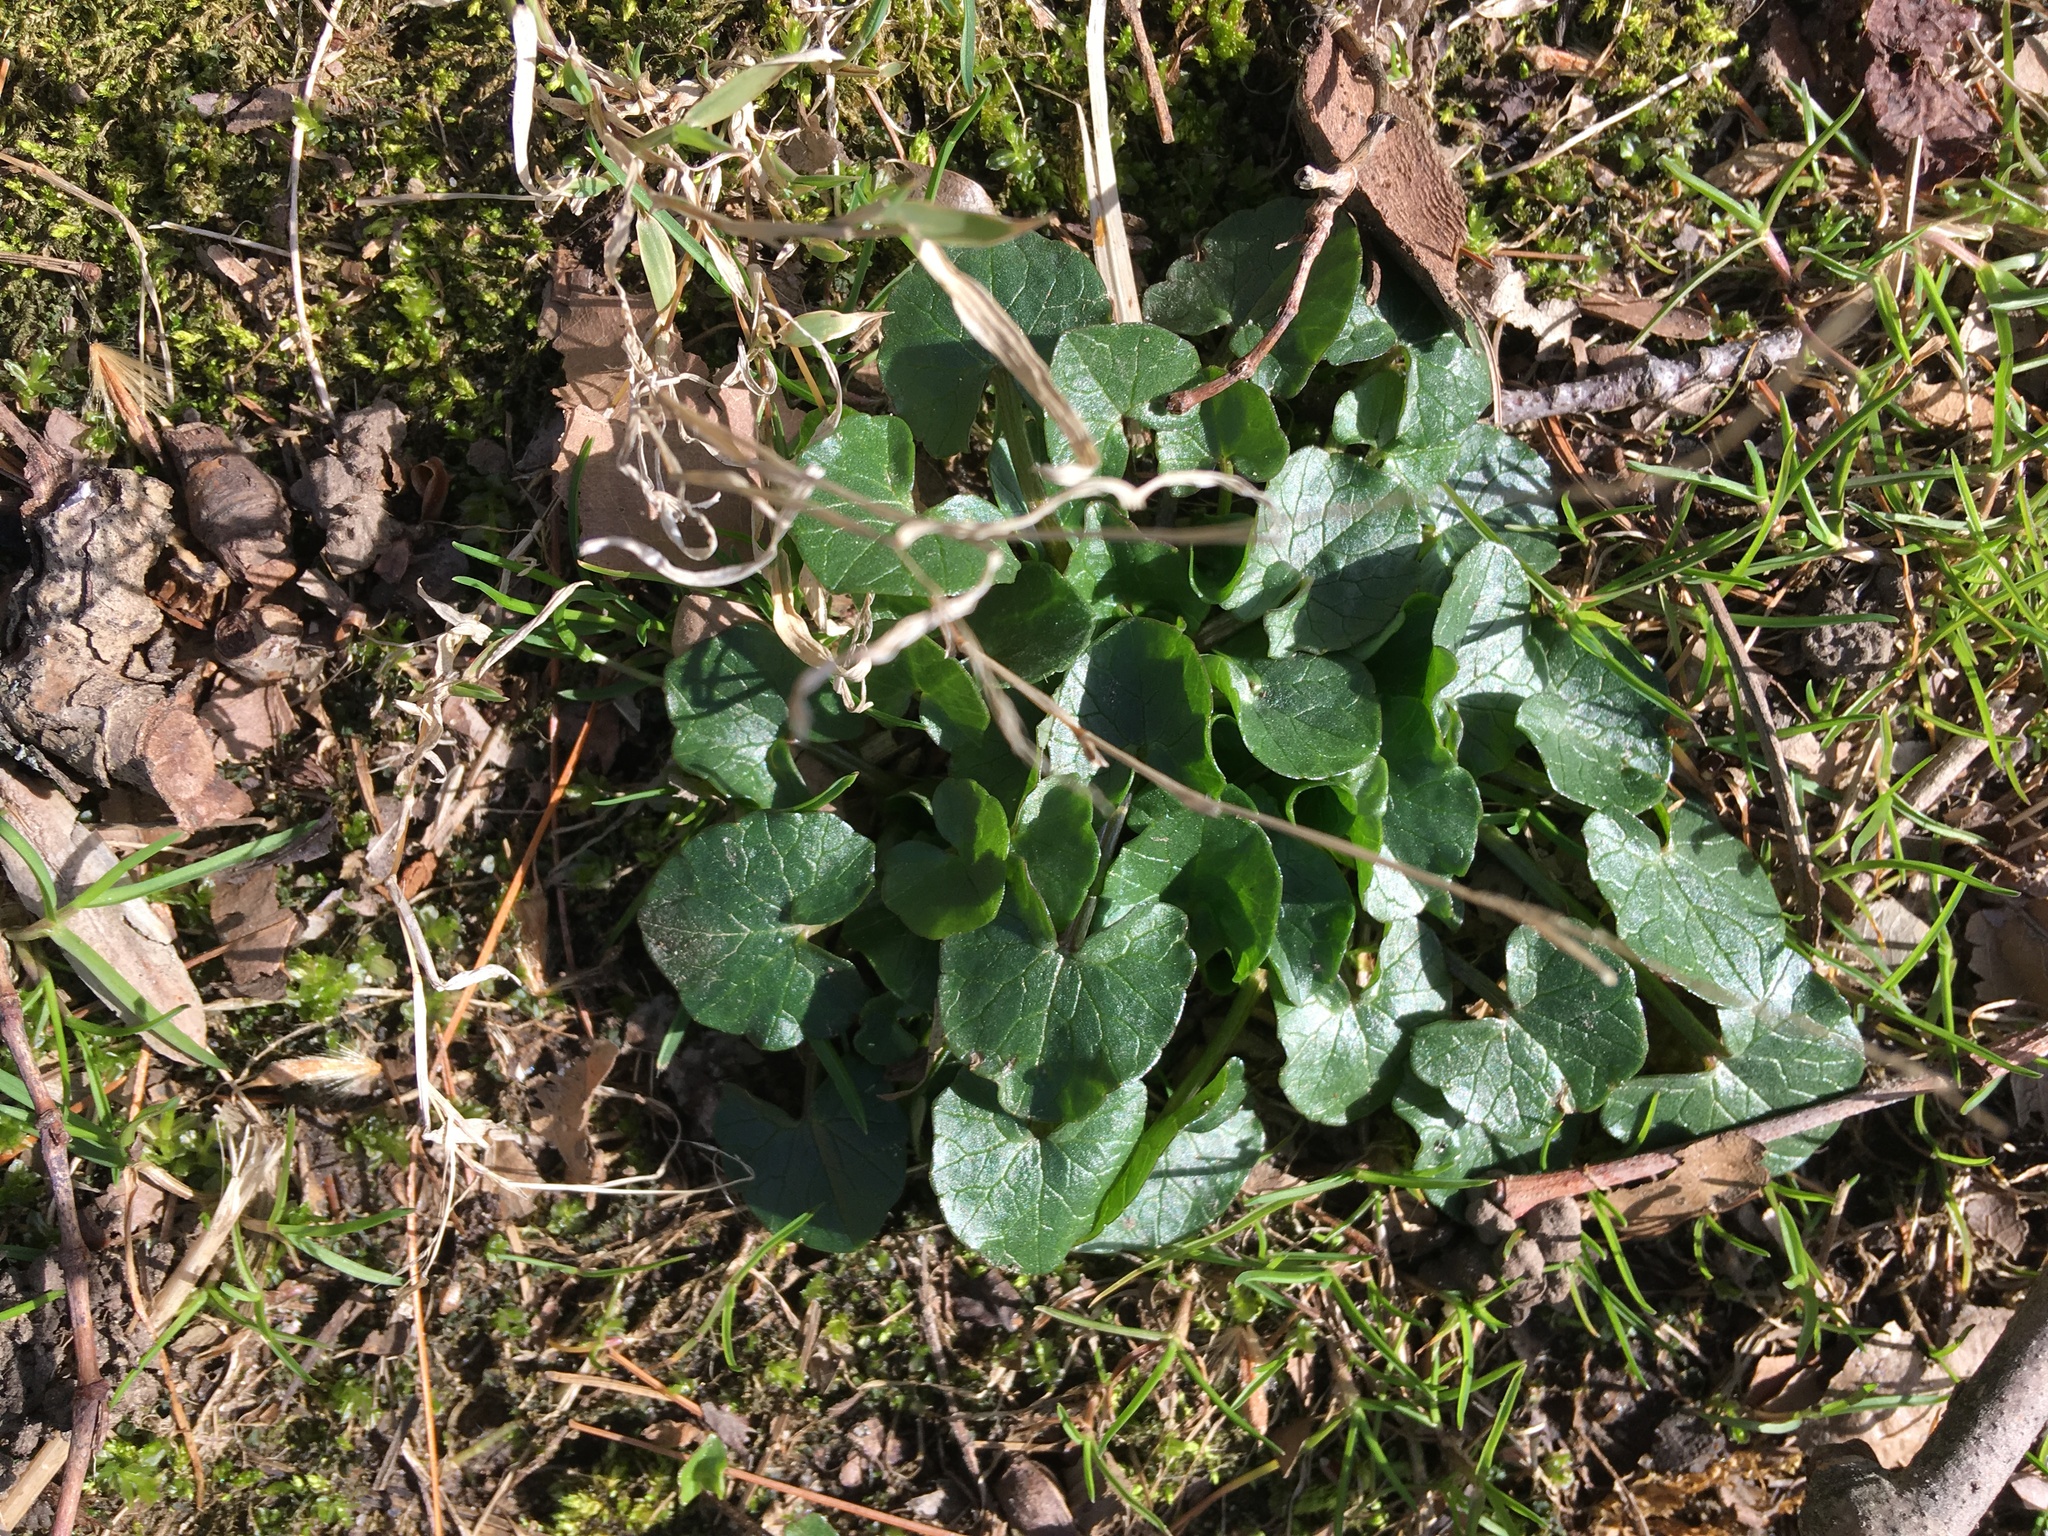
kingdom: Plantae
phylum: Tracheophyta
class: Magnoliopsida
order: Ranunculales
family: Ranunculaceae
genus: Ficaria
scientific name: Ficaria verna
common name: Lesser celandine
